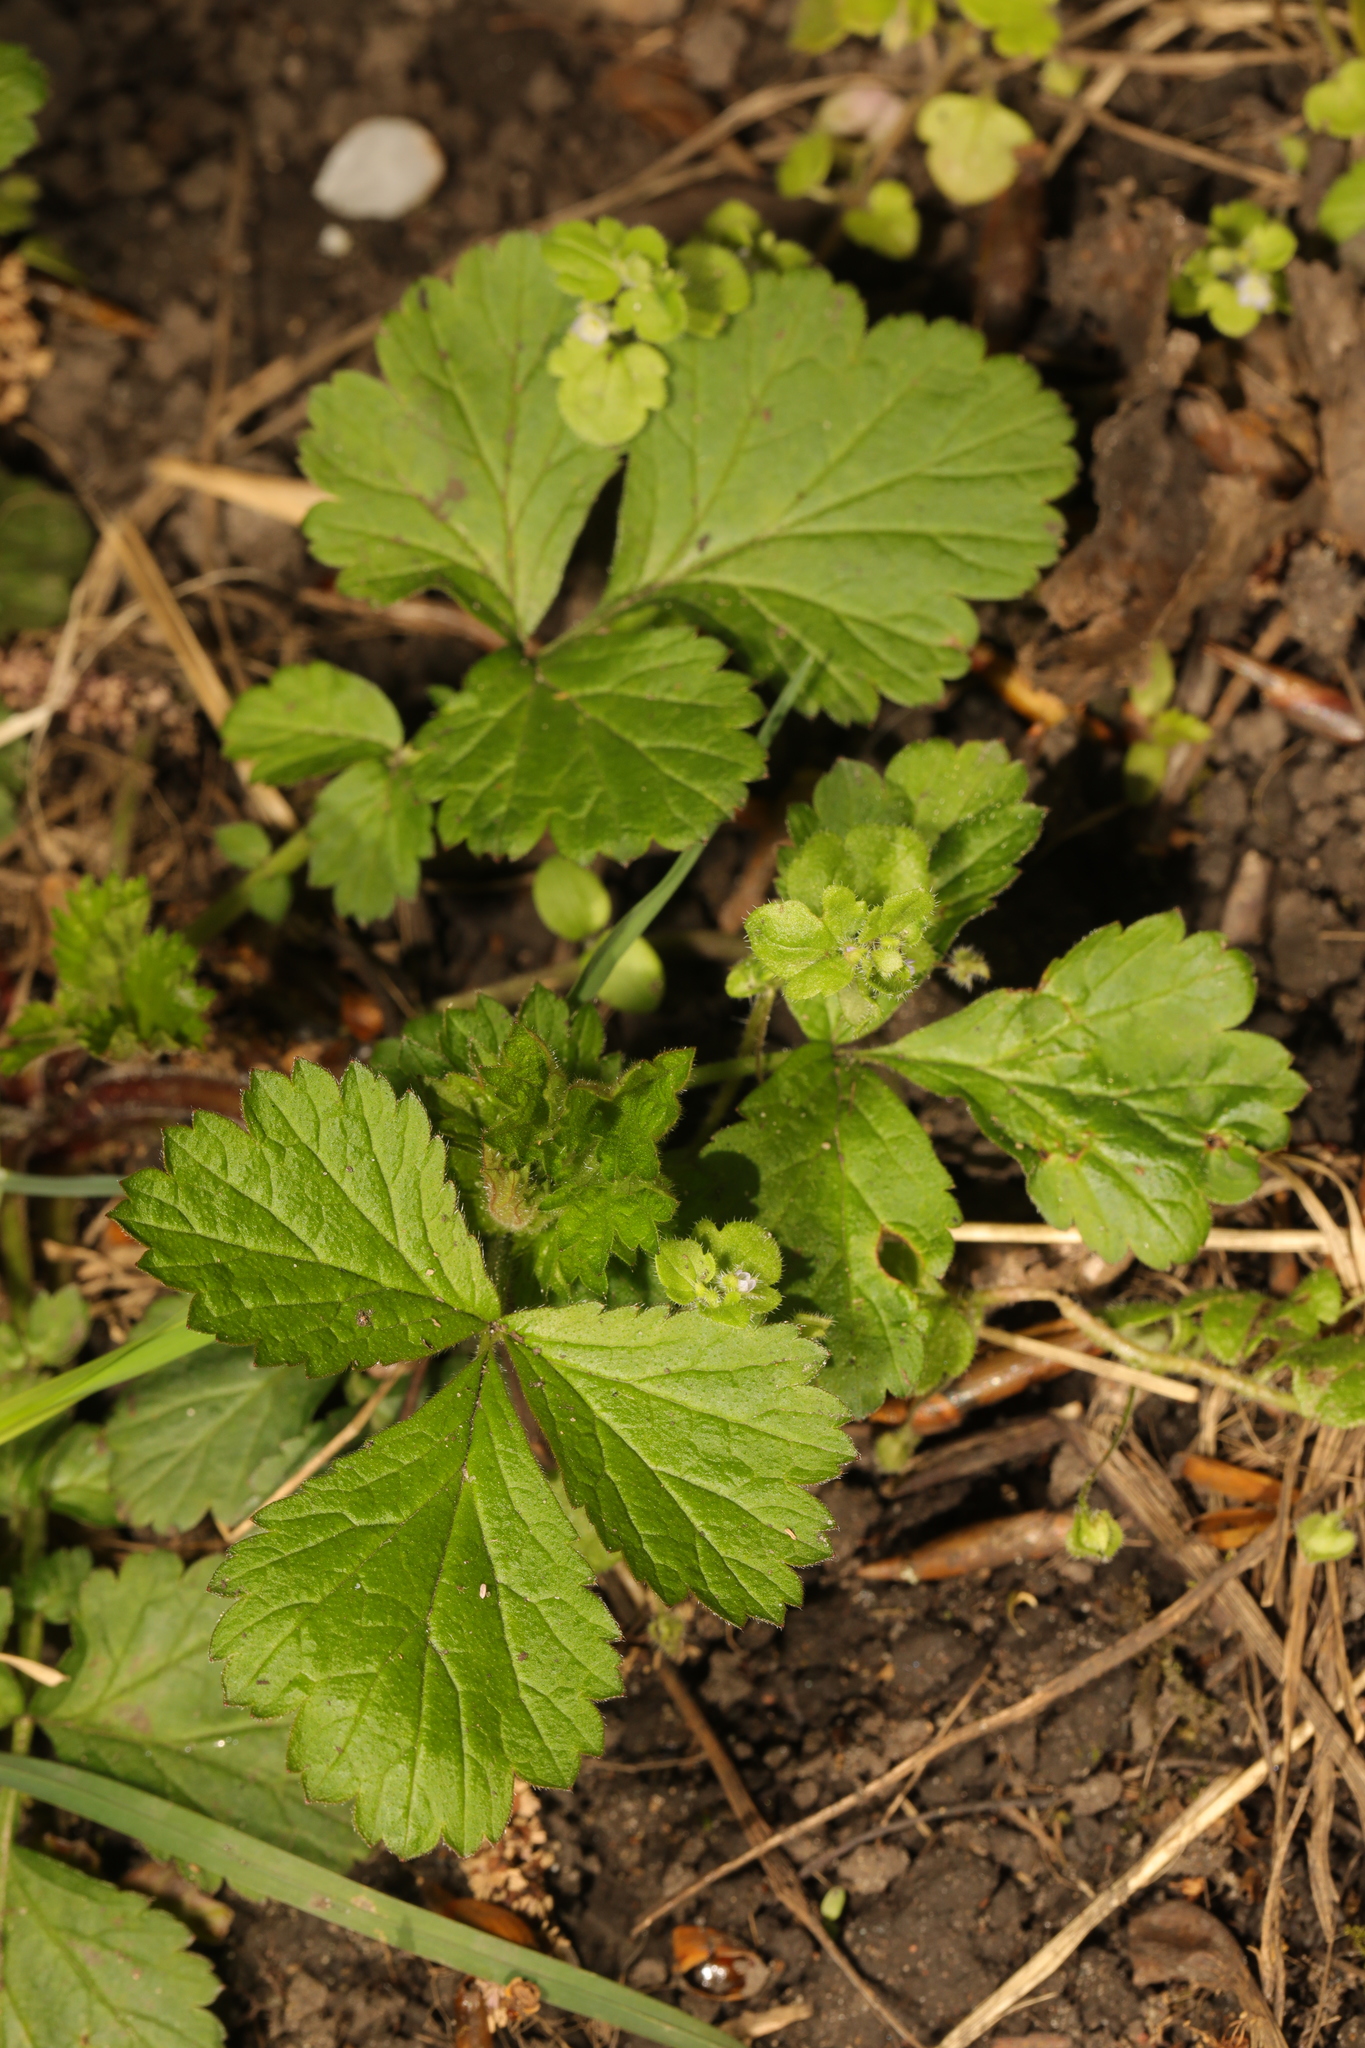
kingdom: Plantae
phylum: Tracheophyta
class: Magnoliopsida
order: Rosales
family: Rosaceae
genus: Geum
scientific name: Geum urbanum
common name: Wood avens
